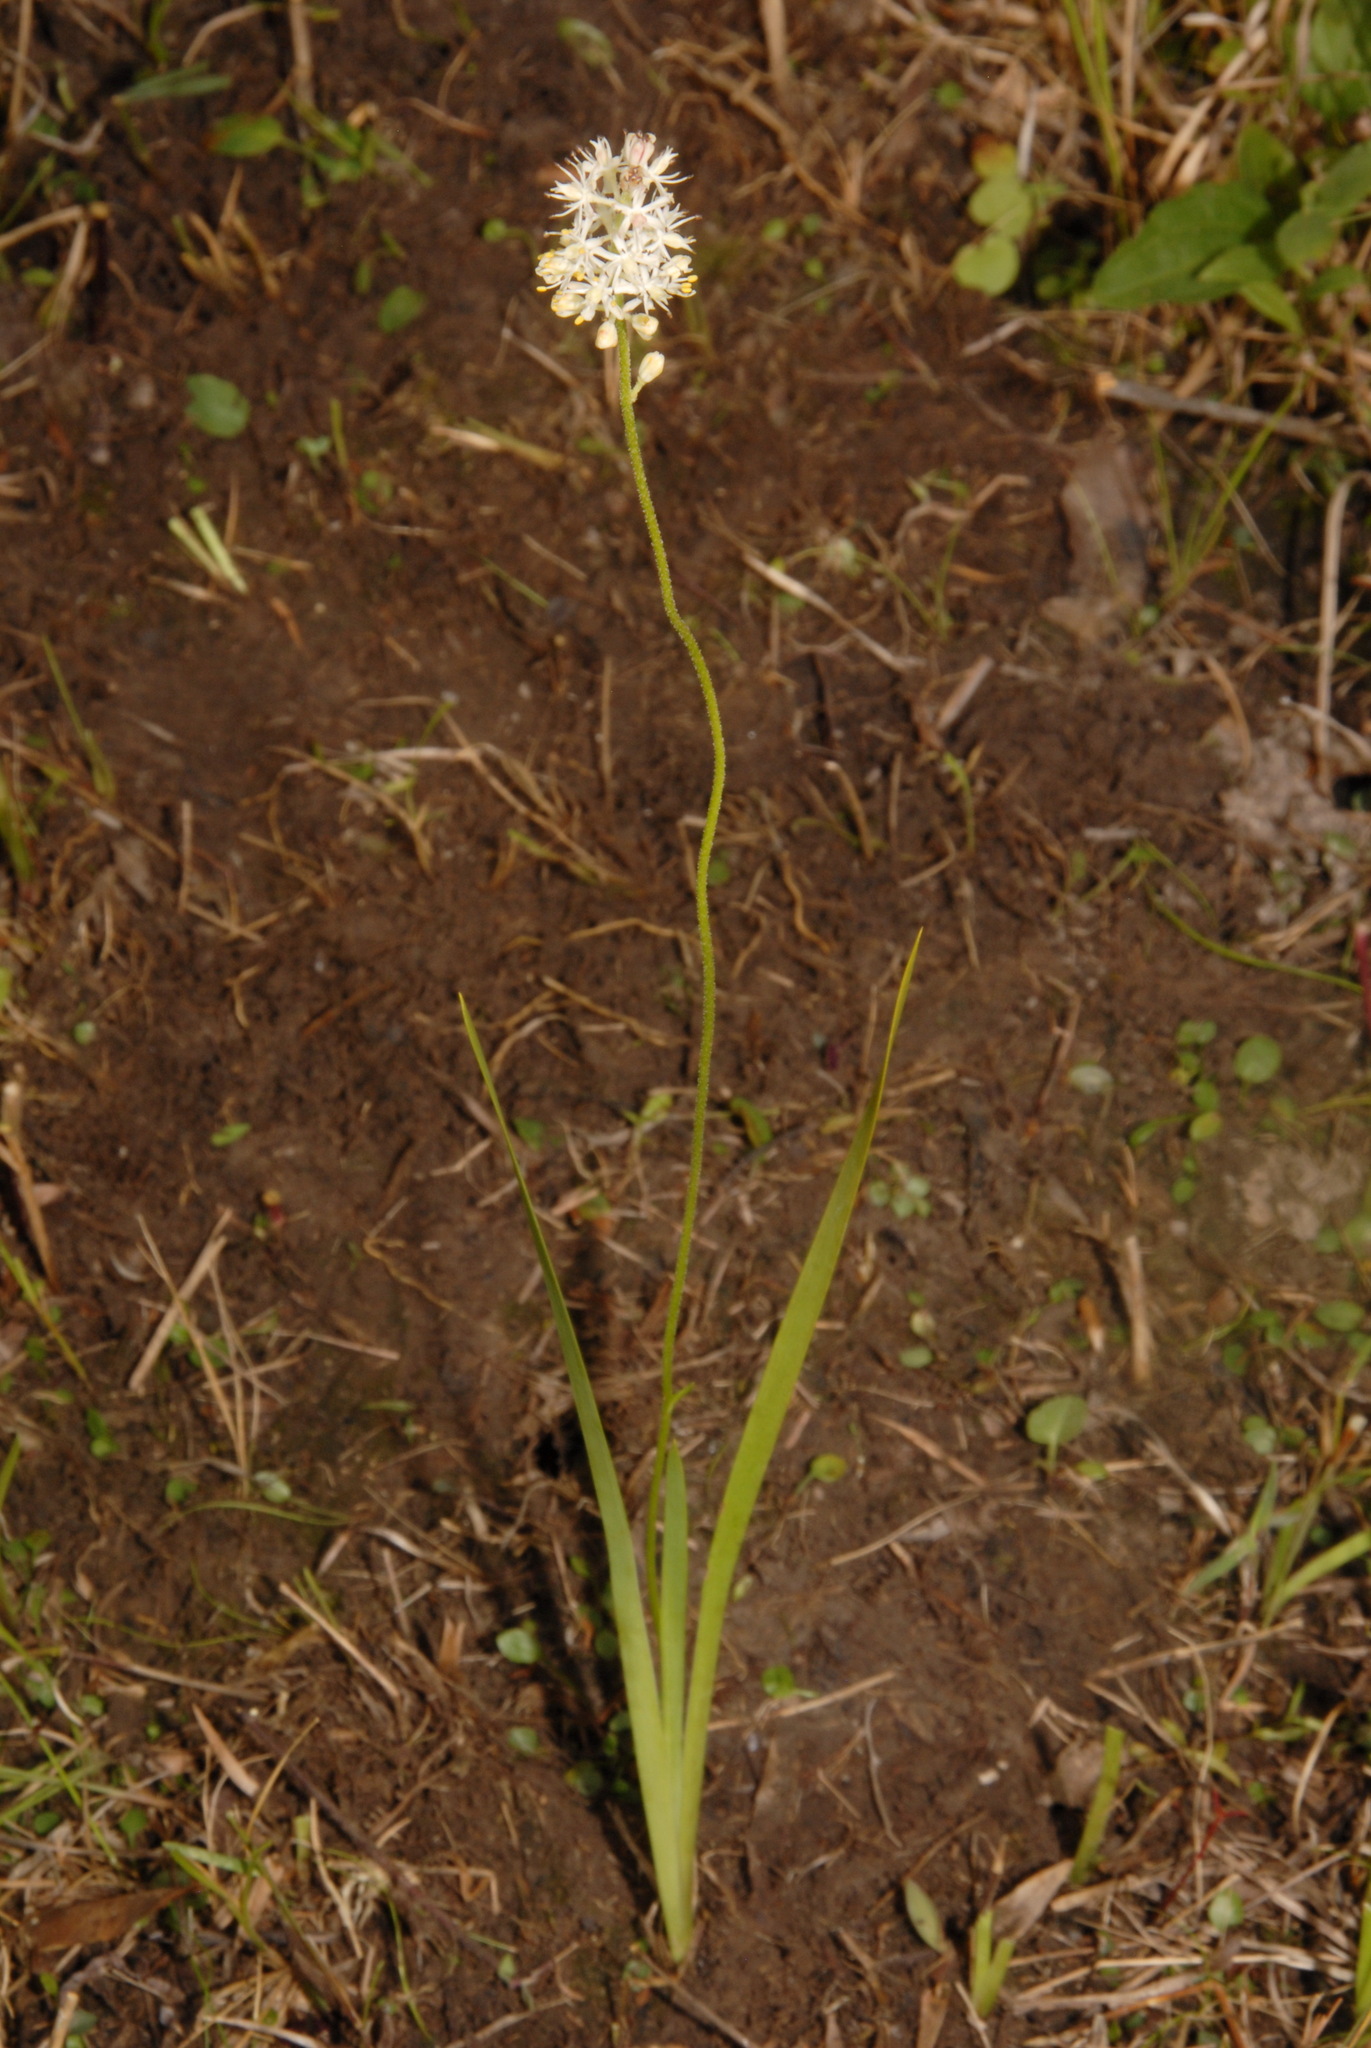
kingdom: Plantae
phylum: Tracheophyta
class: Liliopsida
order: Alismatales
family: Tofieldiaceae
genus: Triantha
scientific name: Triantha racemosa
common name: Coastal false asphodel
